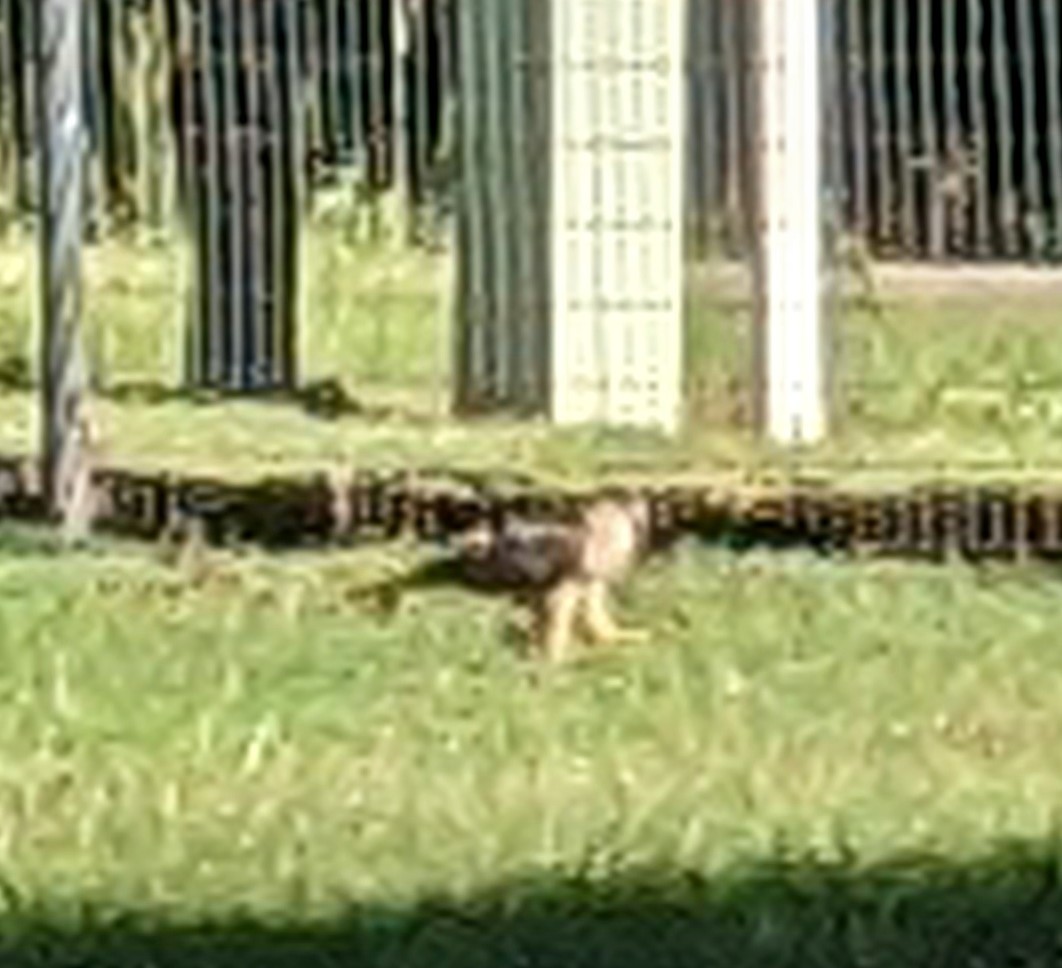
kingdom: Animalia
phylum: Chordata
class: Aves
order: Accipitriformes
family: Accipitridae
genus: Accipiter
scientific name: Accipiter cooperii
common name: Cooper's hawk
